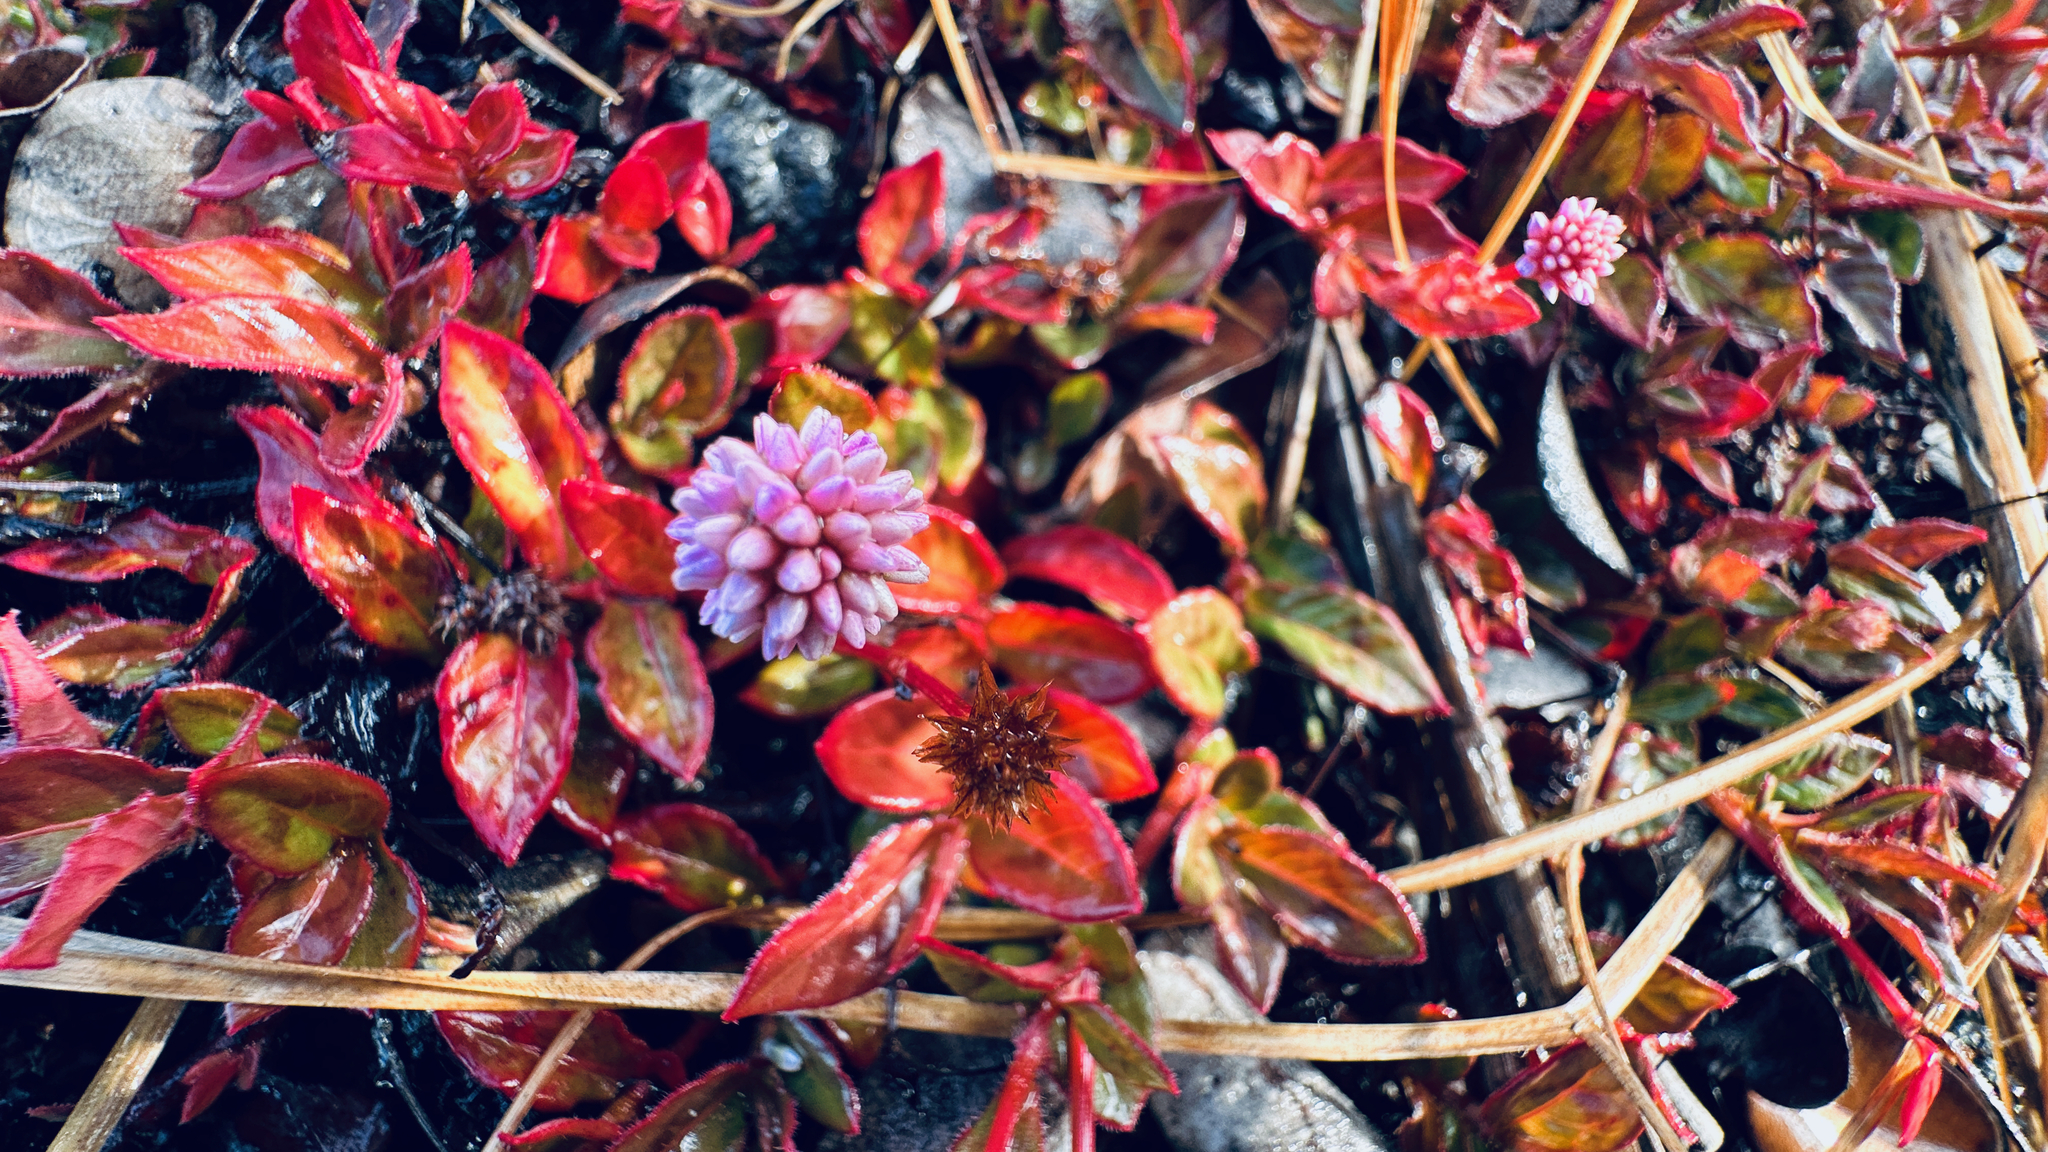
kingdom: Plantae
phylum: Tracheophyta
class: Magnoliopsida
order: Caryophyllales
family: Polygonaceae
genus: Persicaria
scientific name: Persicaria capitata
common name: Pinkhead smartweed
